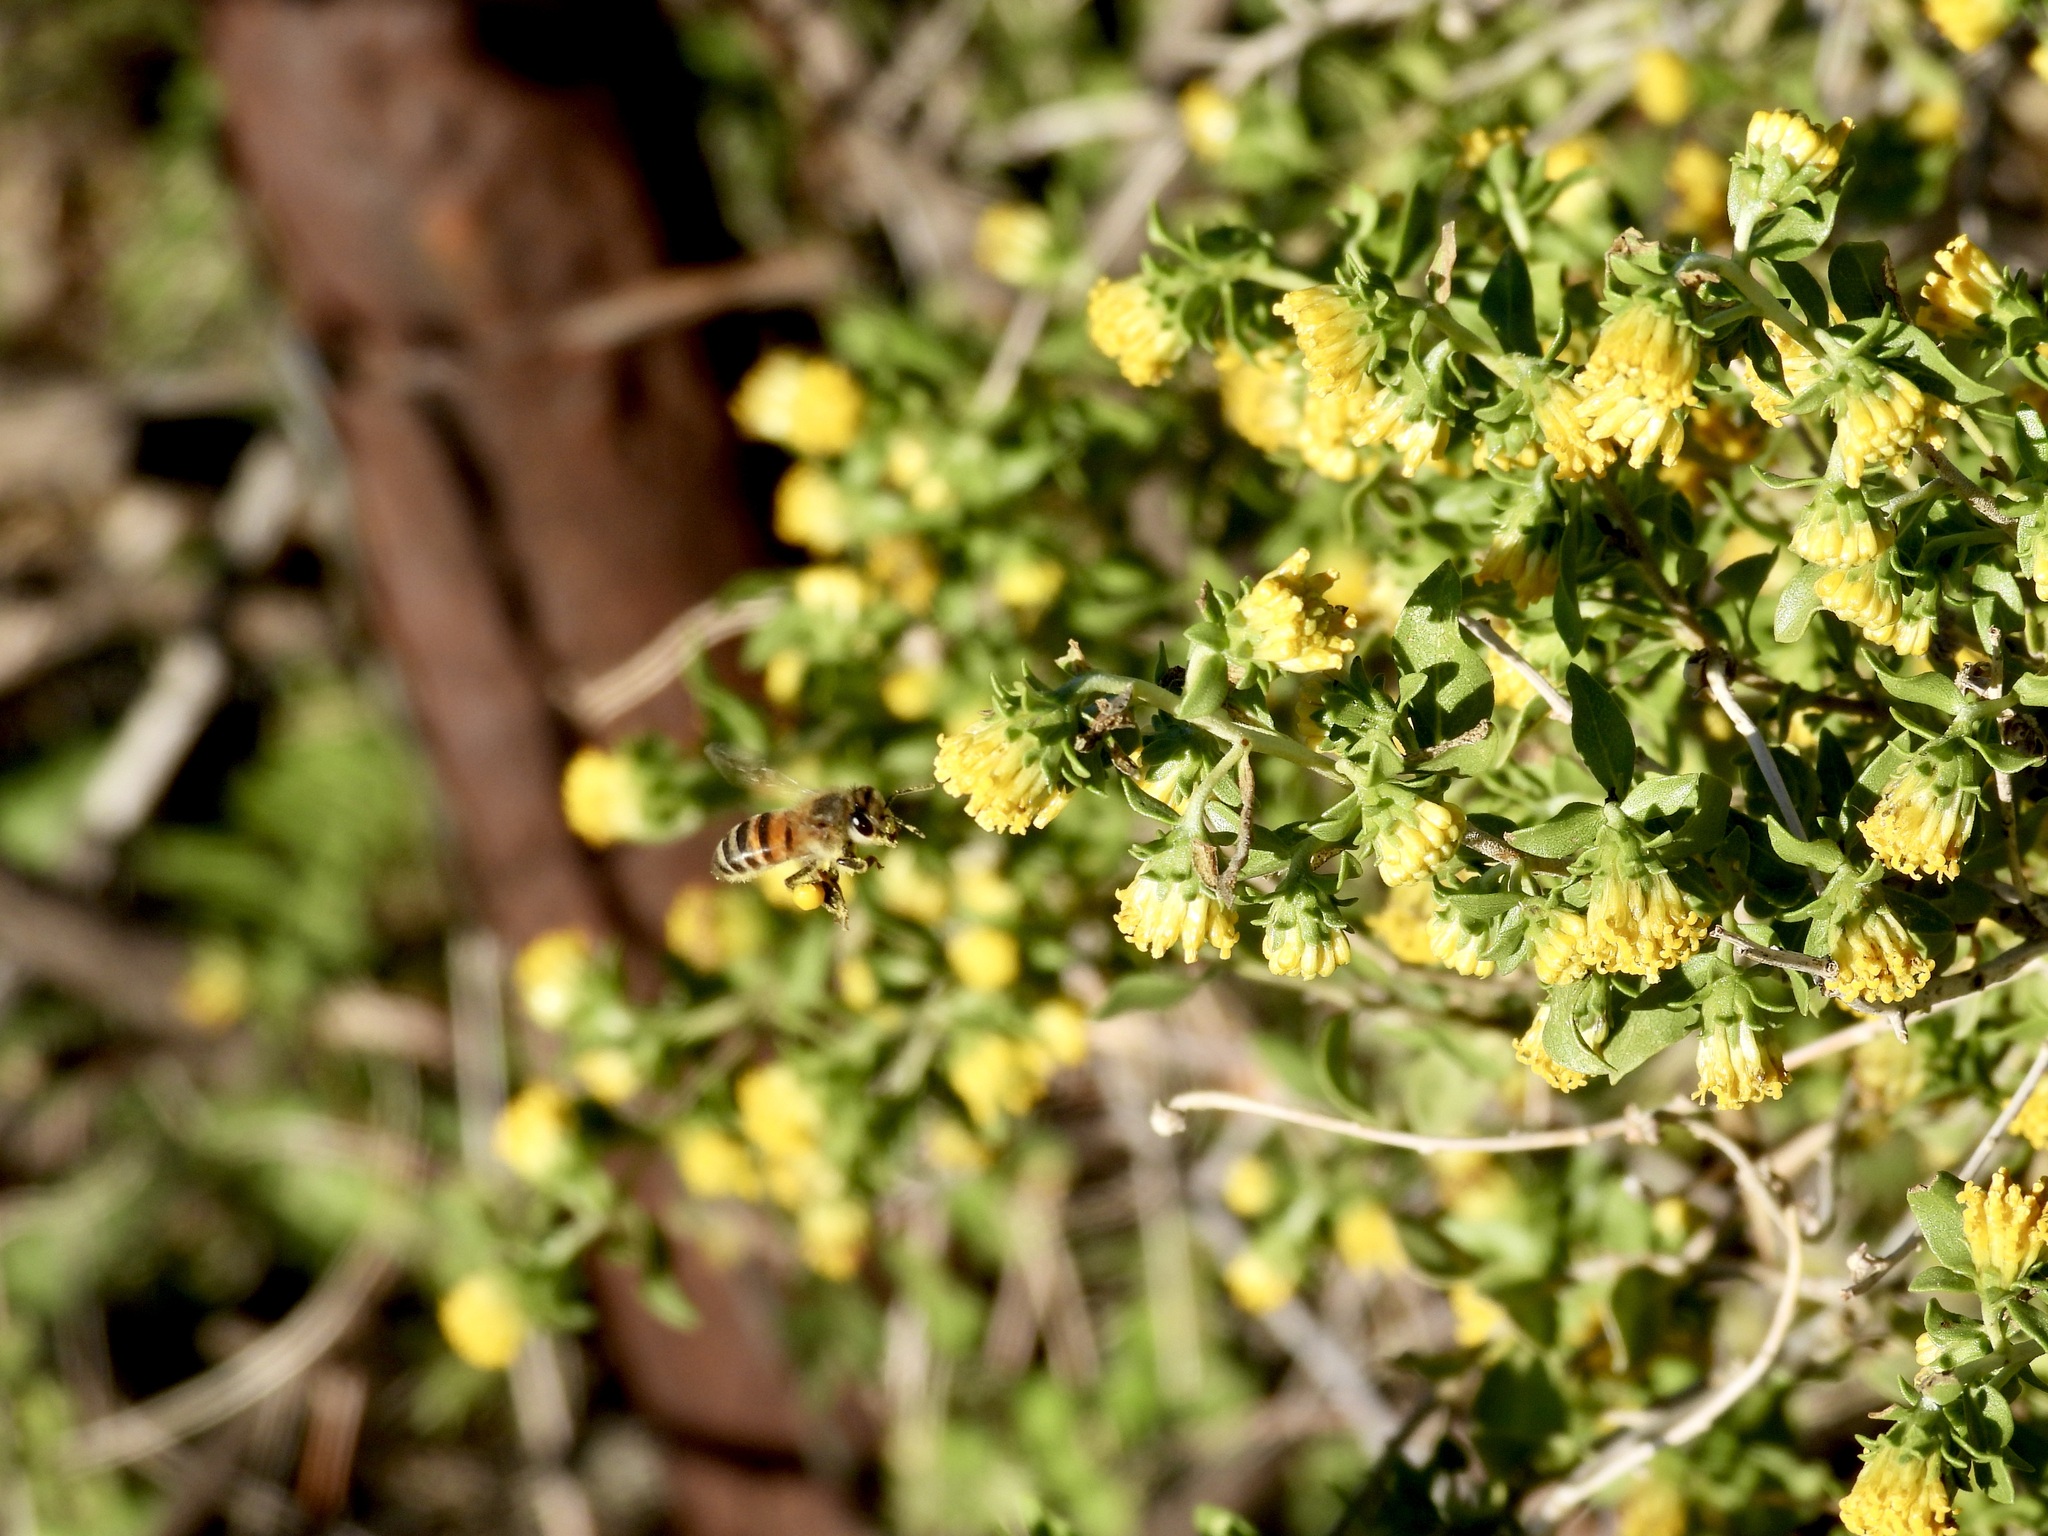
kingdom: Animalia
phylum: Arthropoda
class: Insecta
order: Hymenoptera
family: Apidae
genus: Apis
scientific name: Apis mellifera
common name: Honey bee
